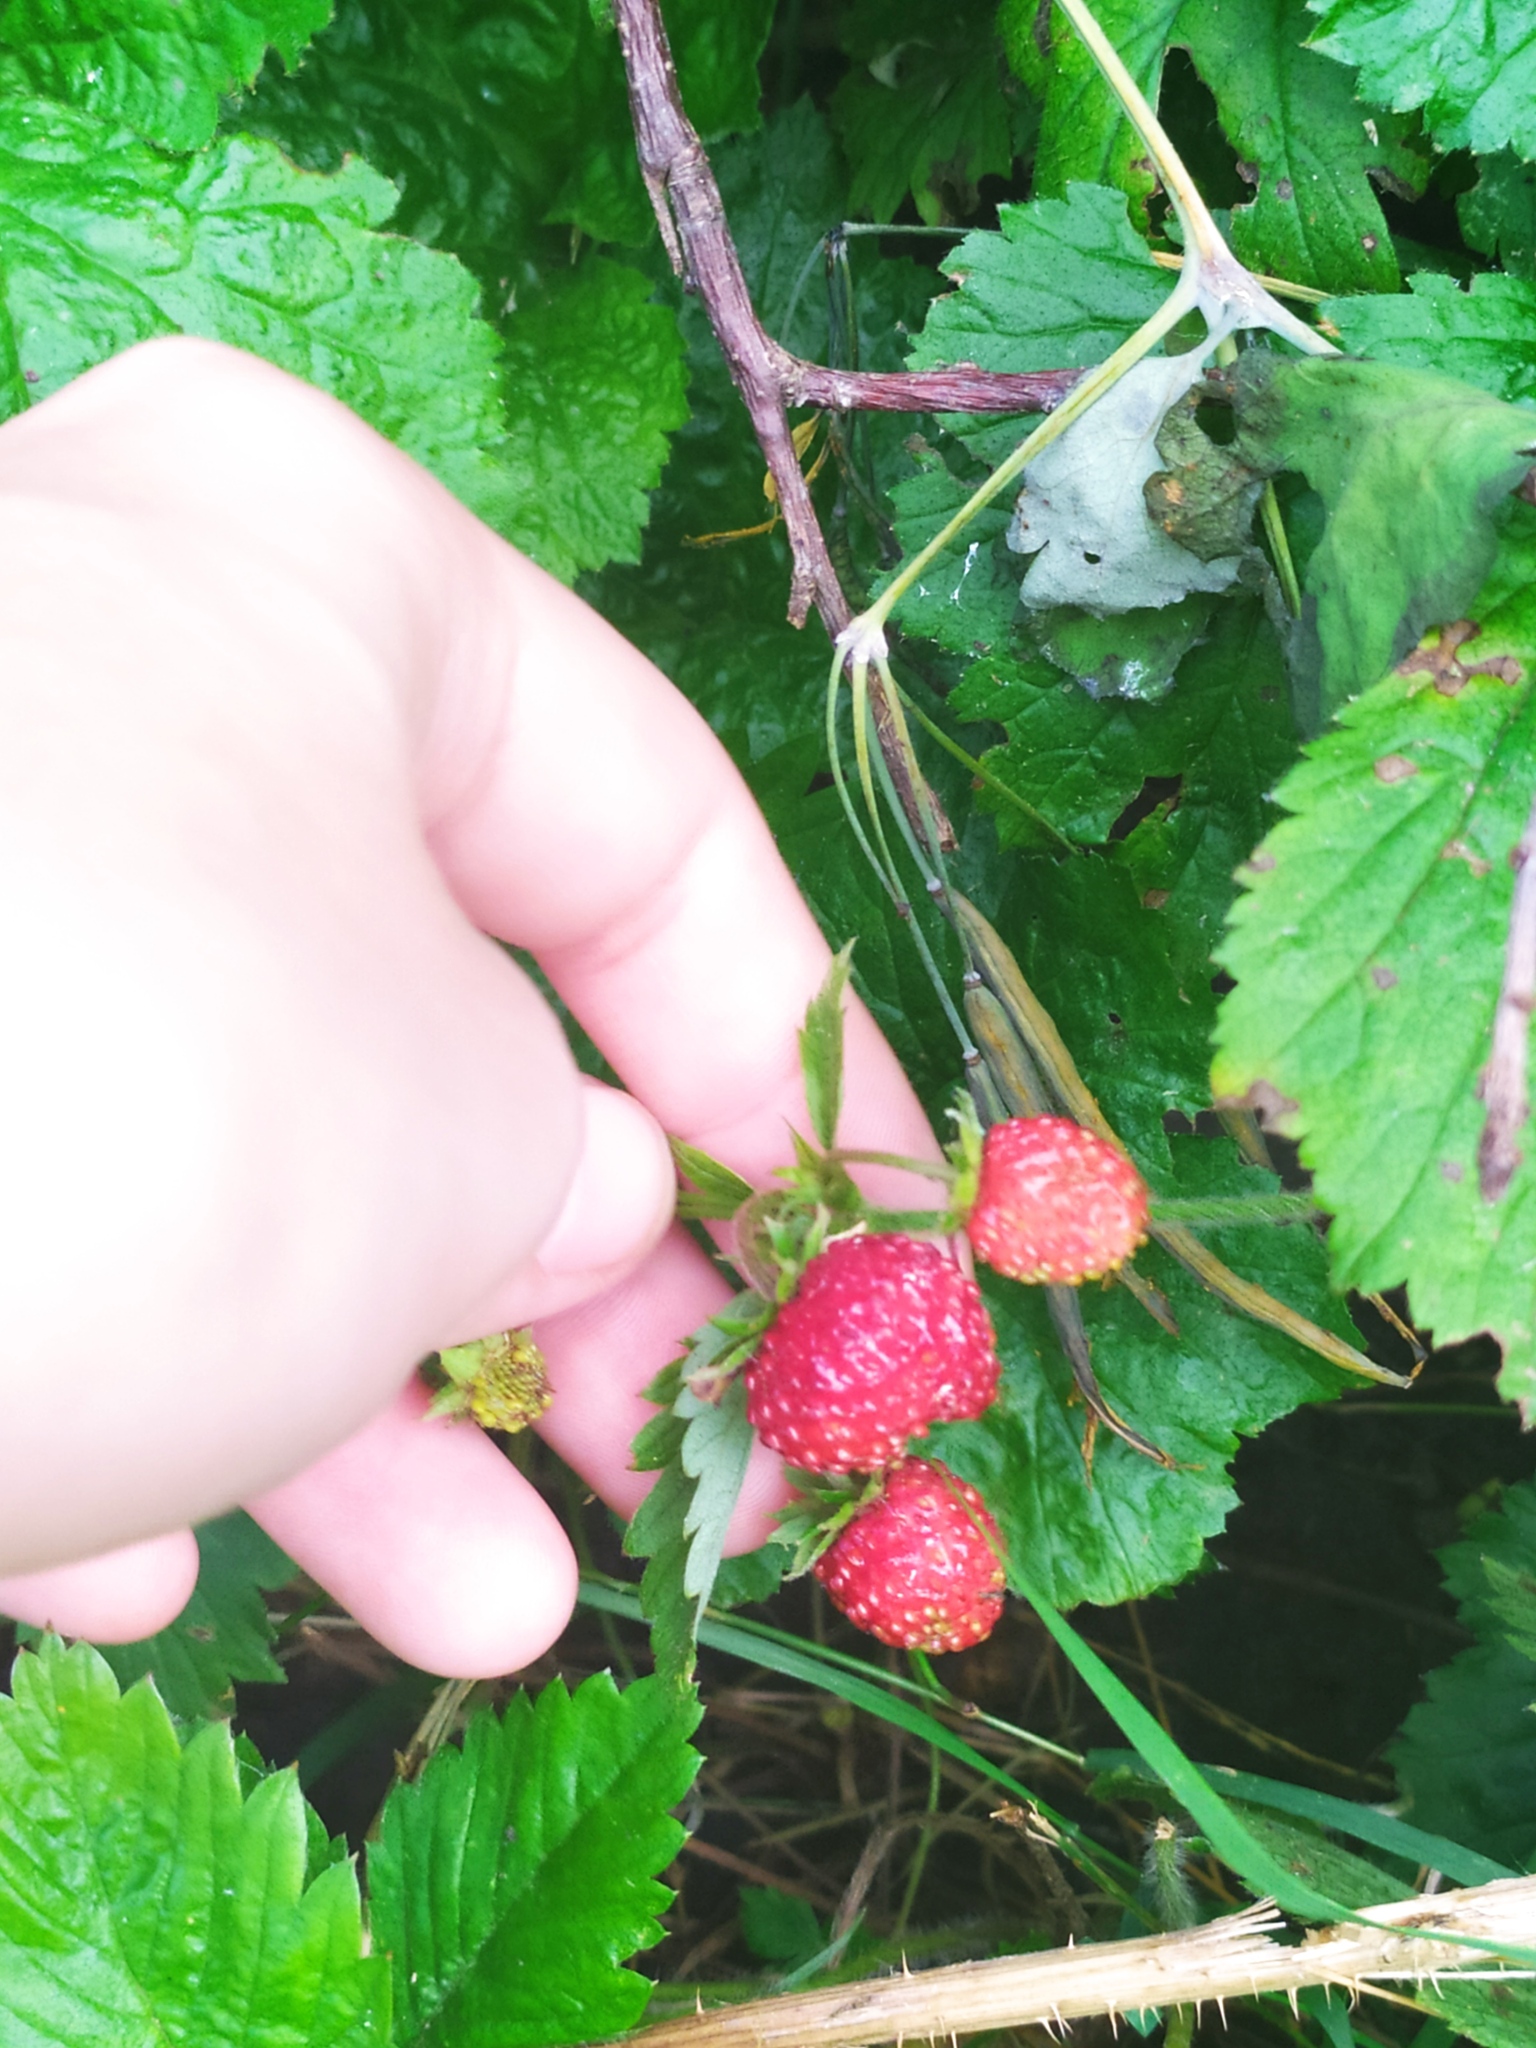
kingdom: Plantae
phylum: Tracheophyta
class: Magnoliopsida
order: Rosales
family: Rosaceae
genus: Fragaria
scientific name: Fragaria vesca
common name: Wild strawberry
